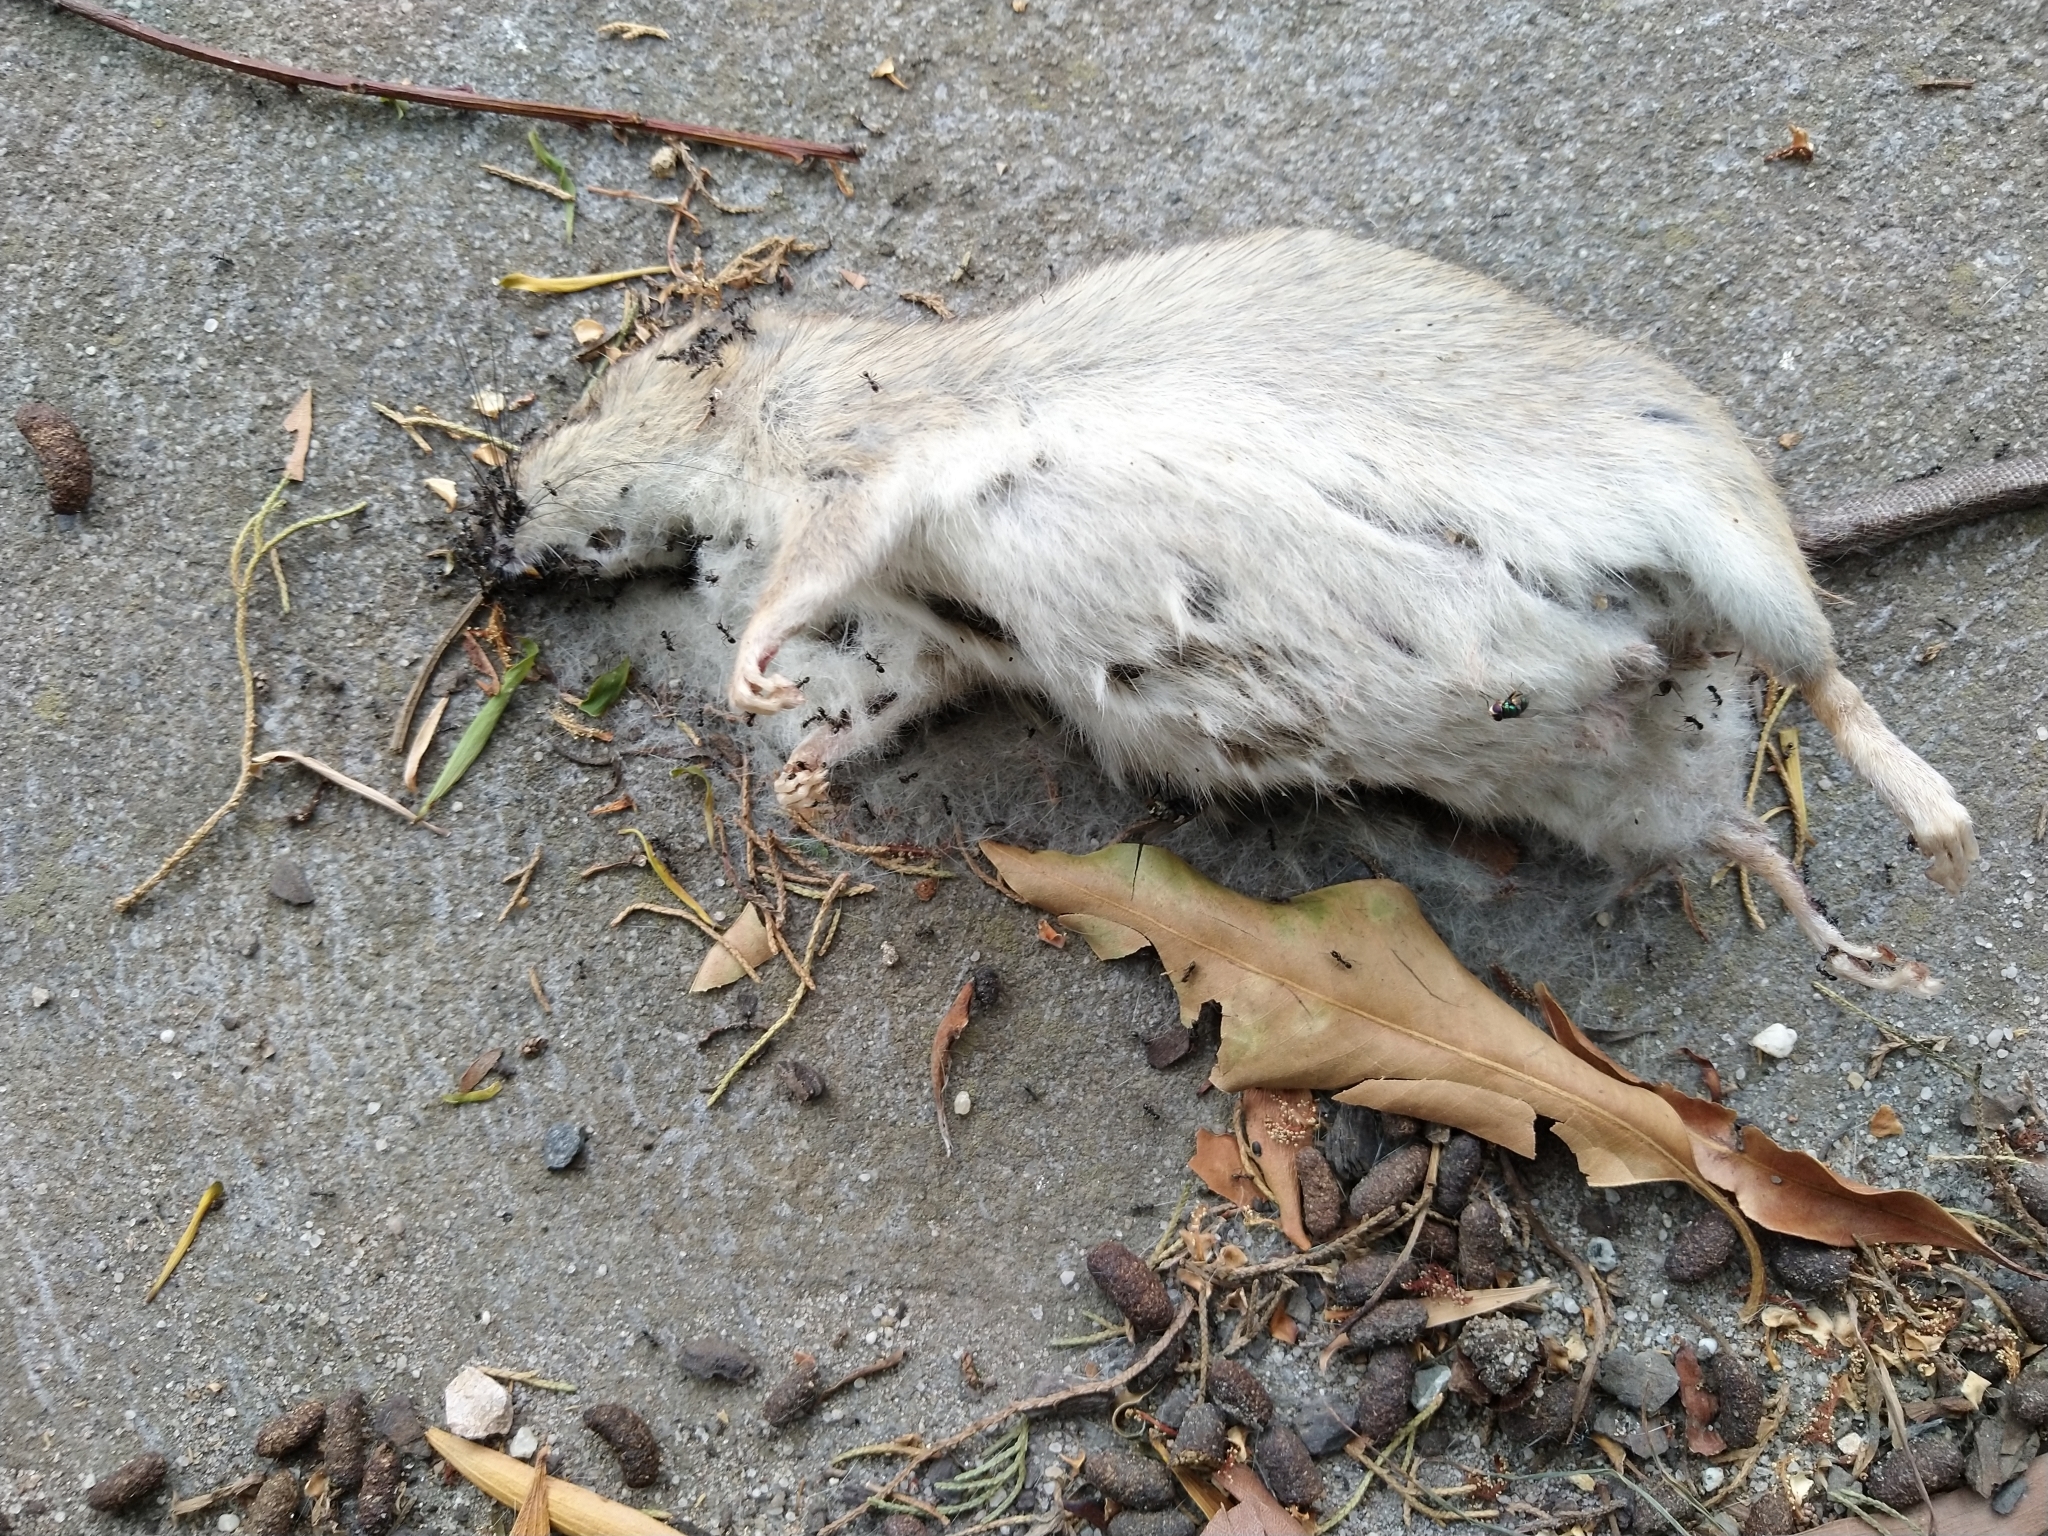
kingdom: Animalia
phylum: Chordata
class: Mammalia
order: Rodentia
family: Muridae
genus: Rattus
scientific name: Rattus rattus
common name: Black rat
